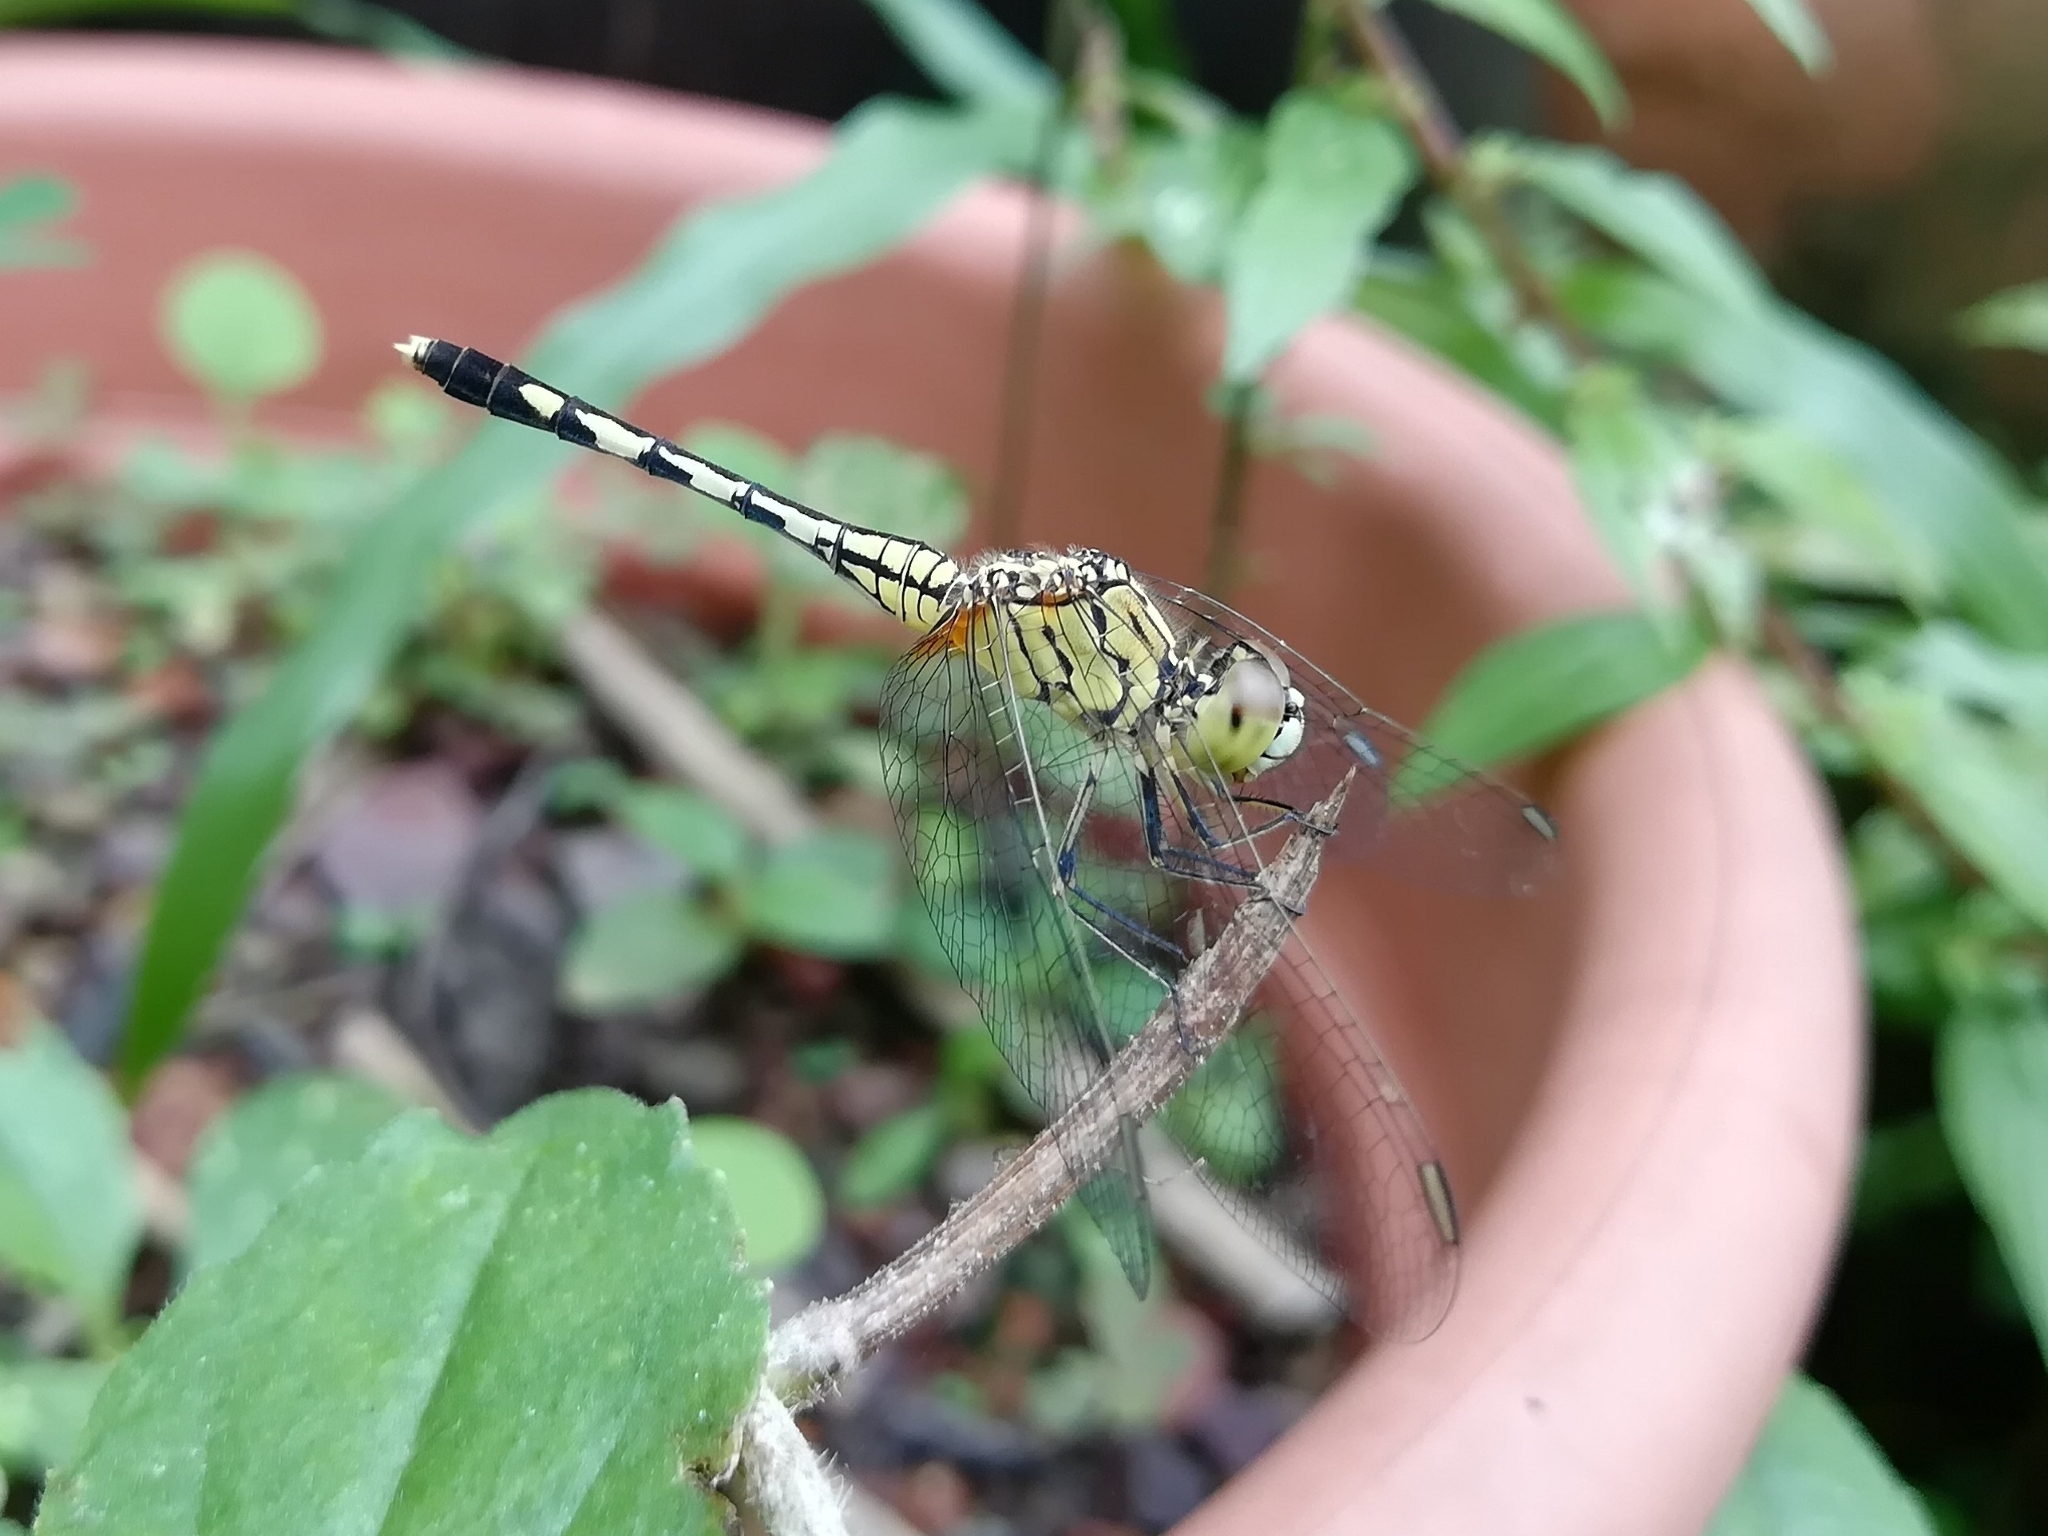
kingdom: Animalia
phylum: Arthropoda
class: Insecta
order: Odonata
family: Libellulidae
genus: Diplacodes
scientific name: Diplacodes trivialis
